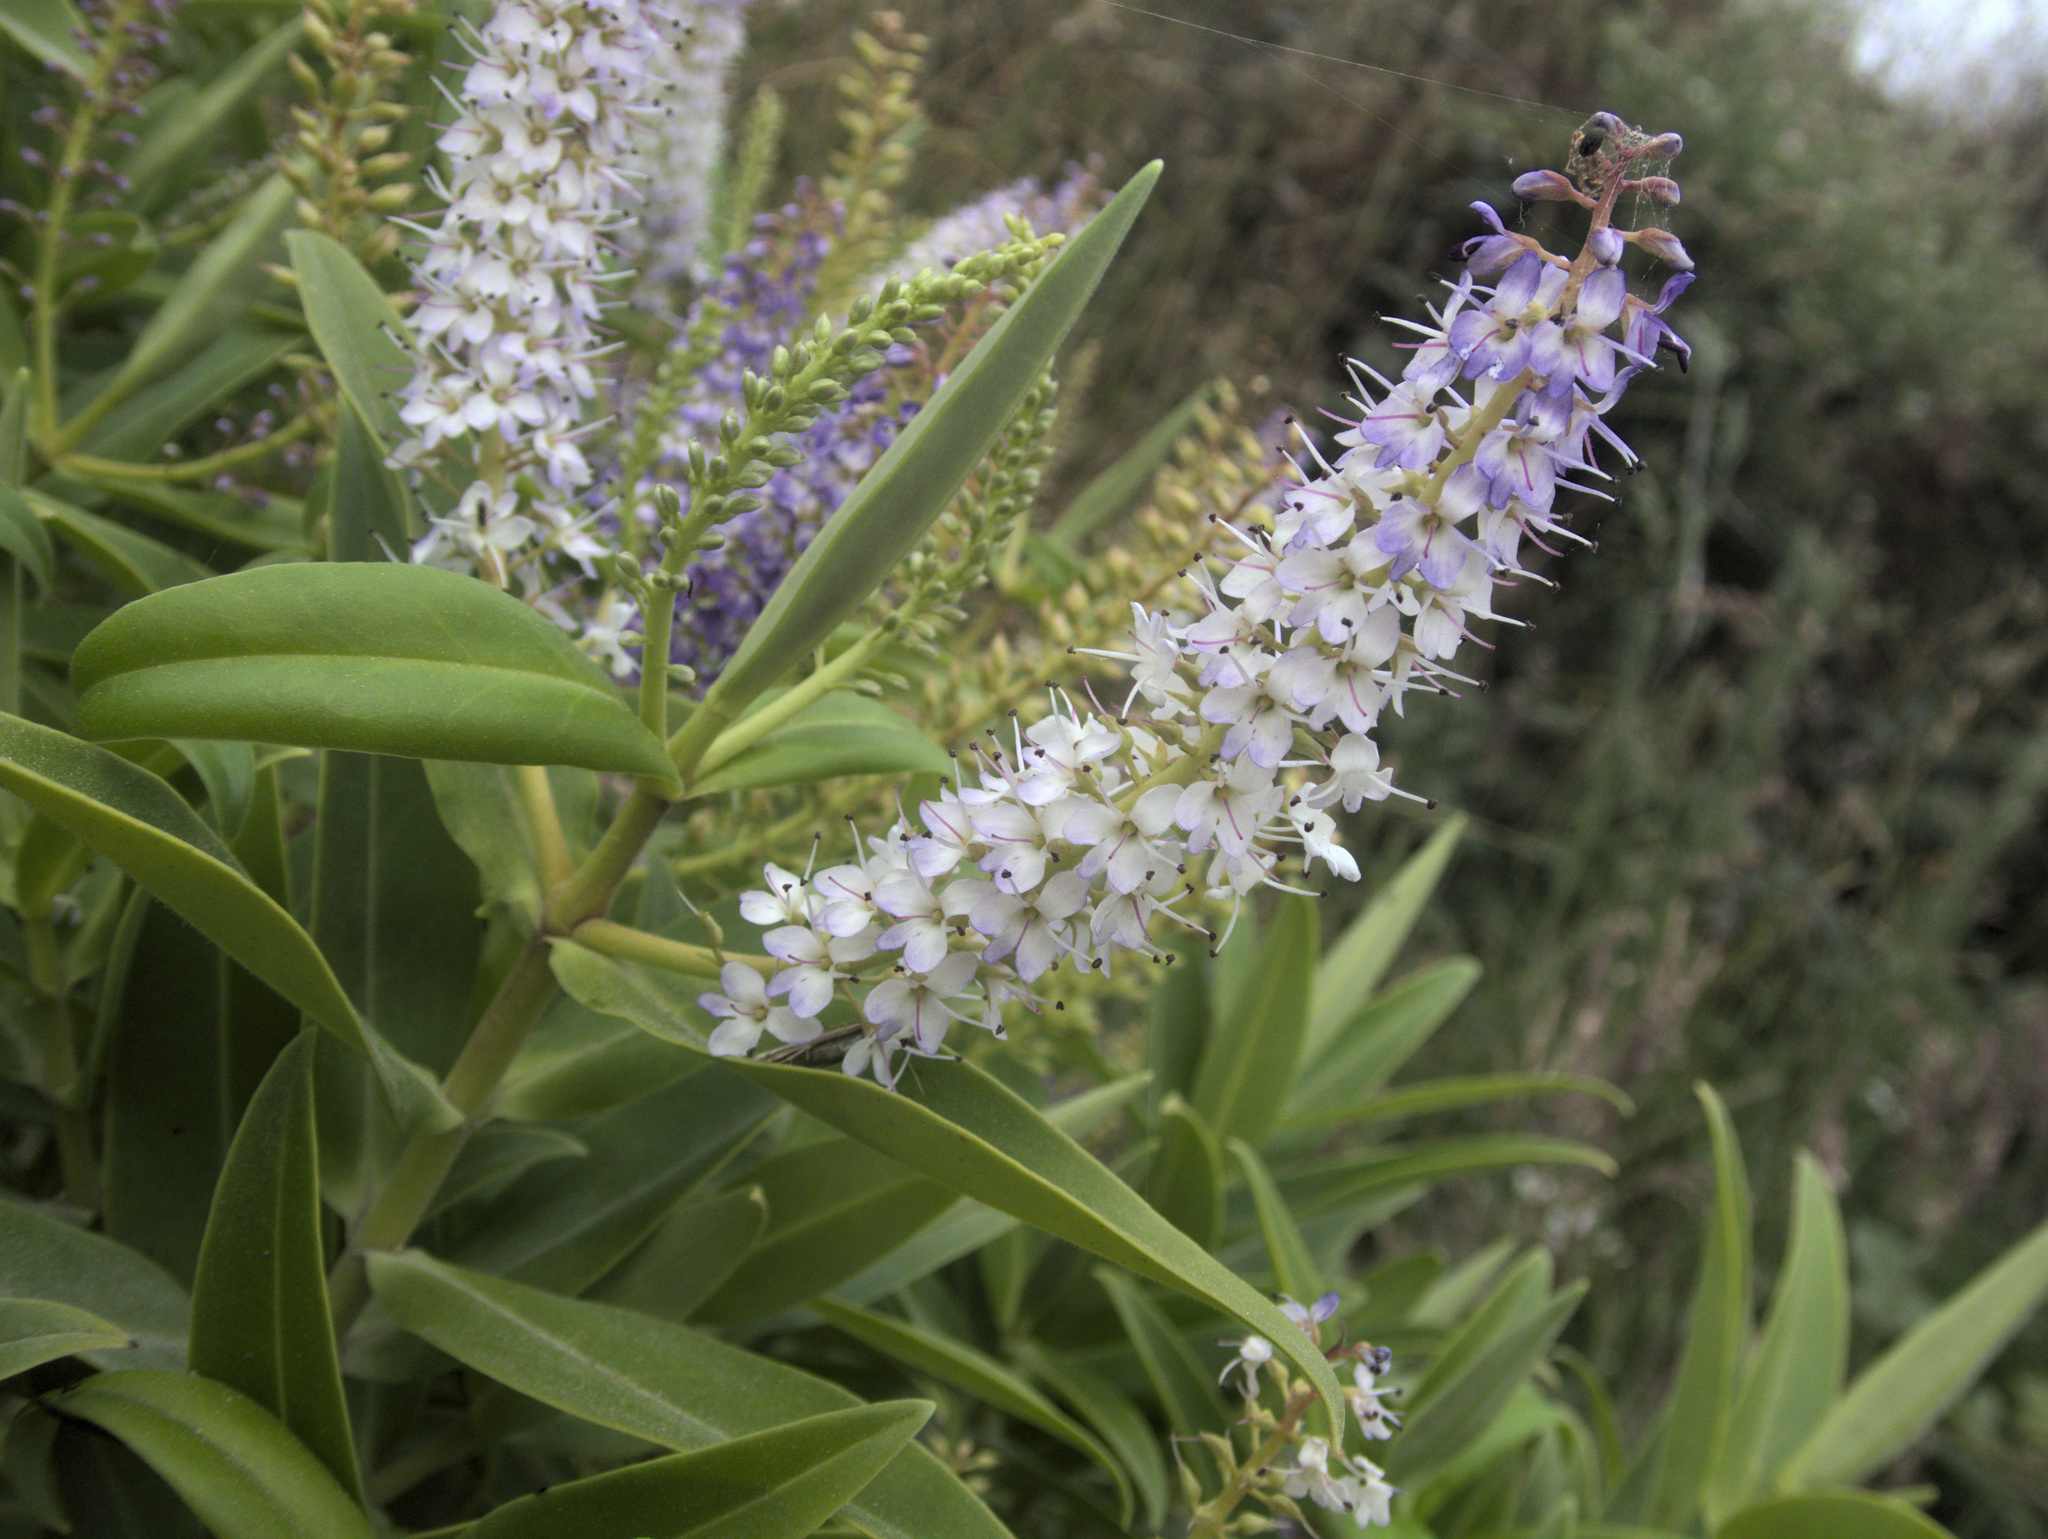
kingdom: Plantae
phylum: Tracheophyta
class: Magnoliopsida
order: Lamiales
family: Plantaginaceae
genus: Veronica
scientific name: Veronica barkeri
